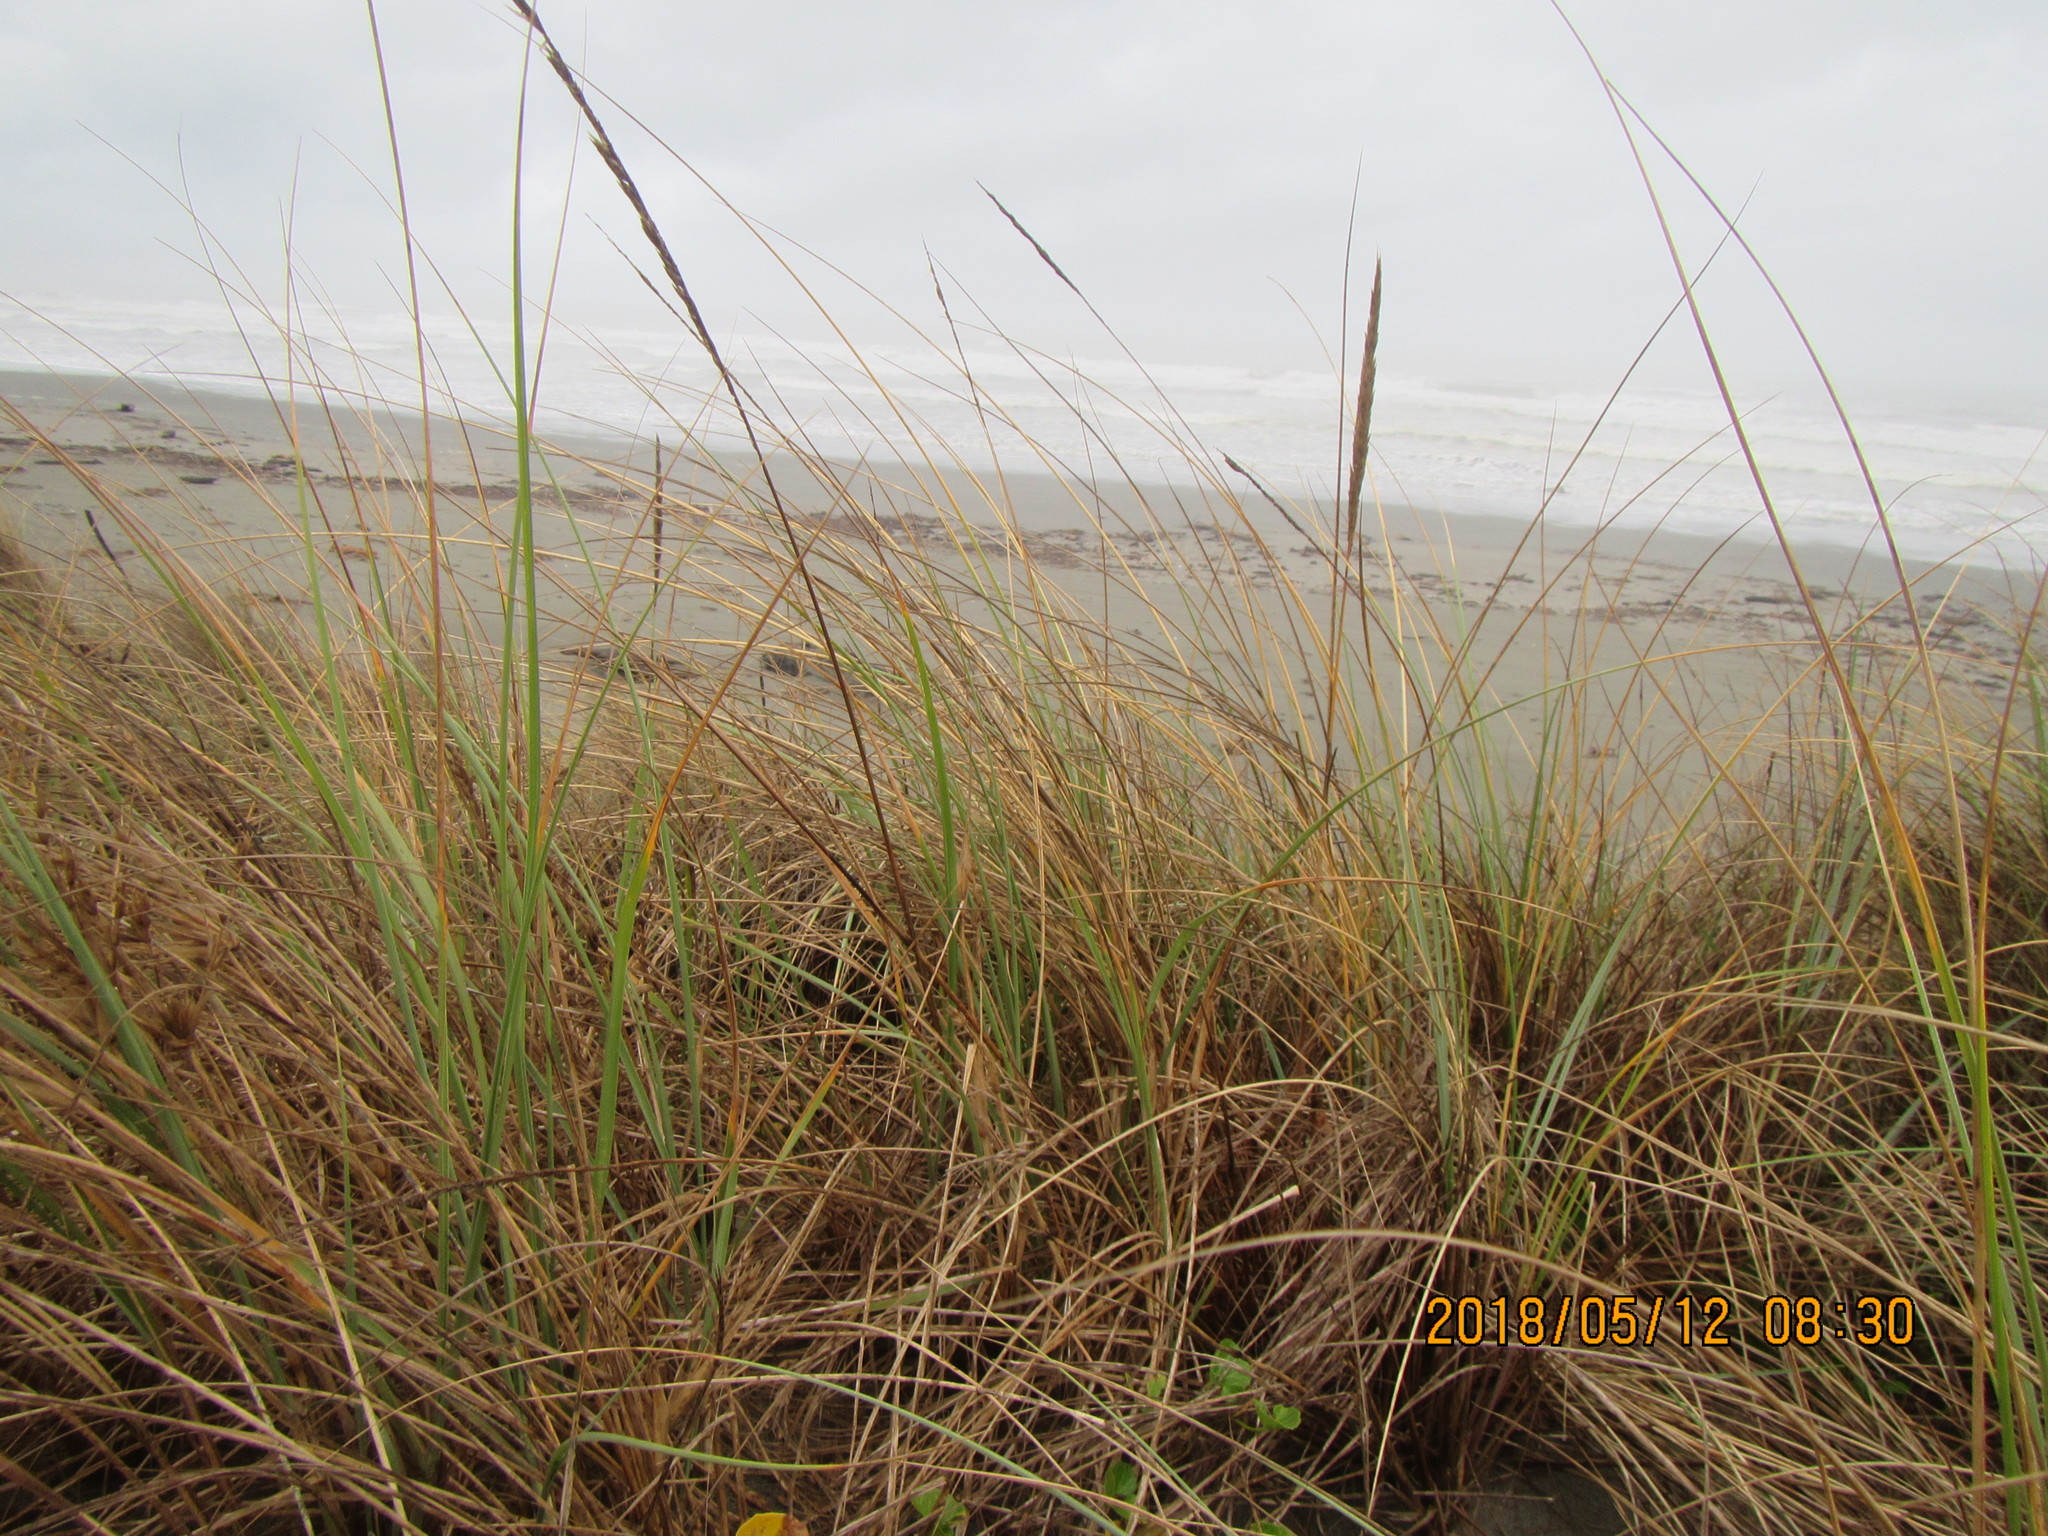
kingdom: Plantae
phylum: Tracheophyta
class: Liliopsida
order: Poales
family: Poaceae
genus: Calamagrostis
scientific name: Calamagrostis arenaria
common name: European beachgrass
